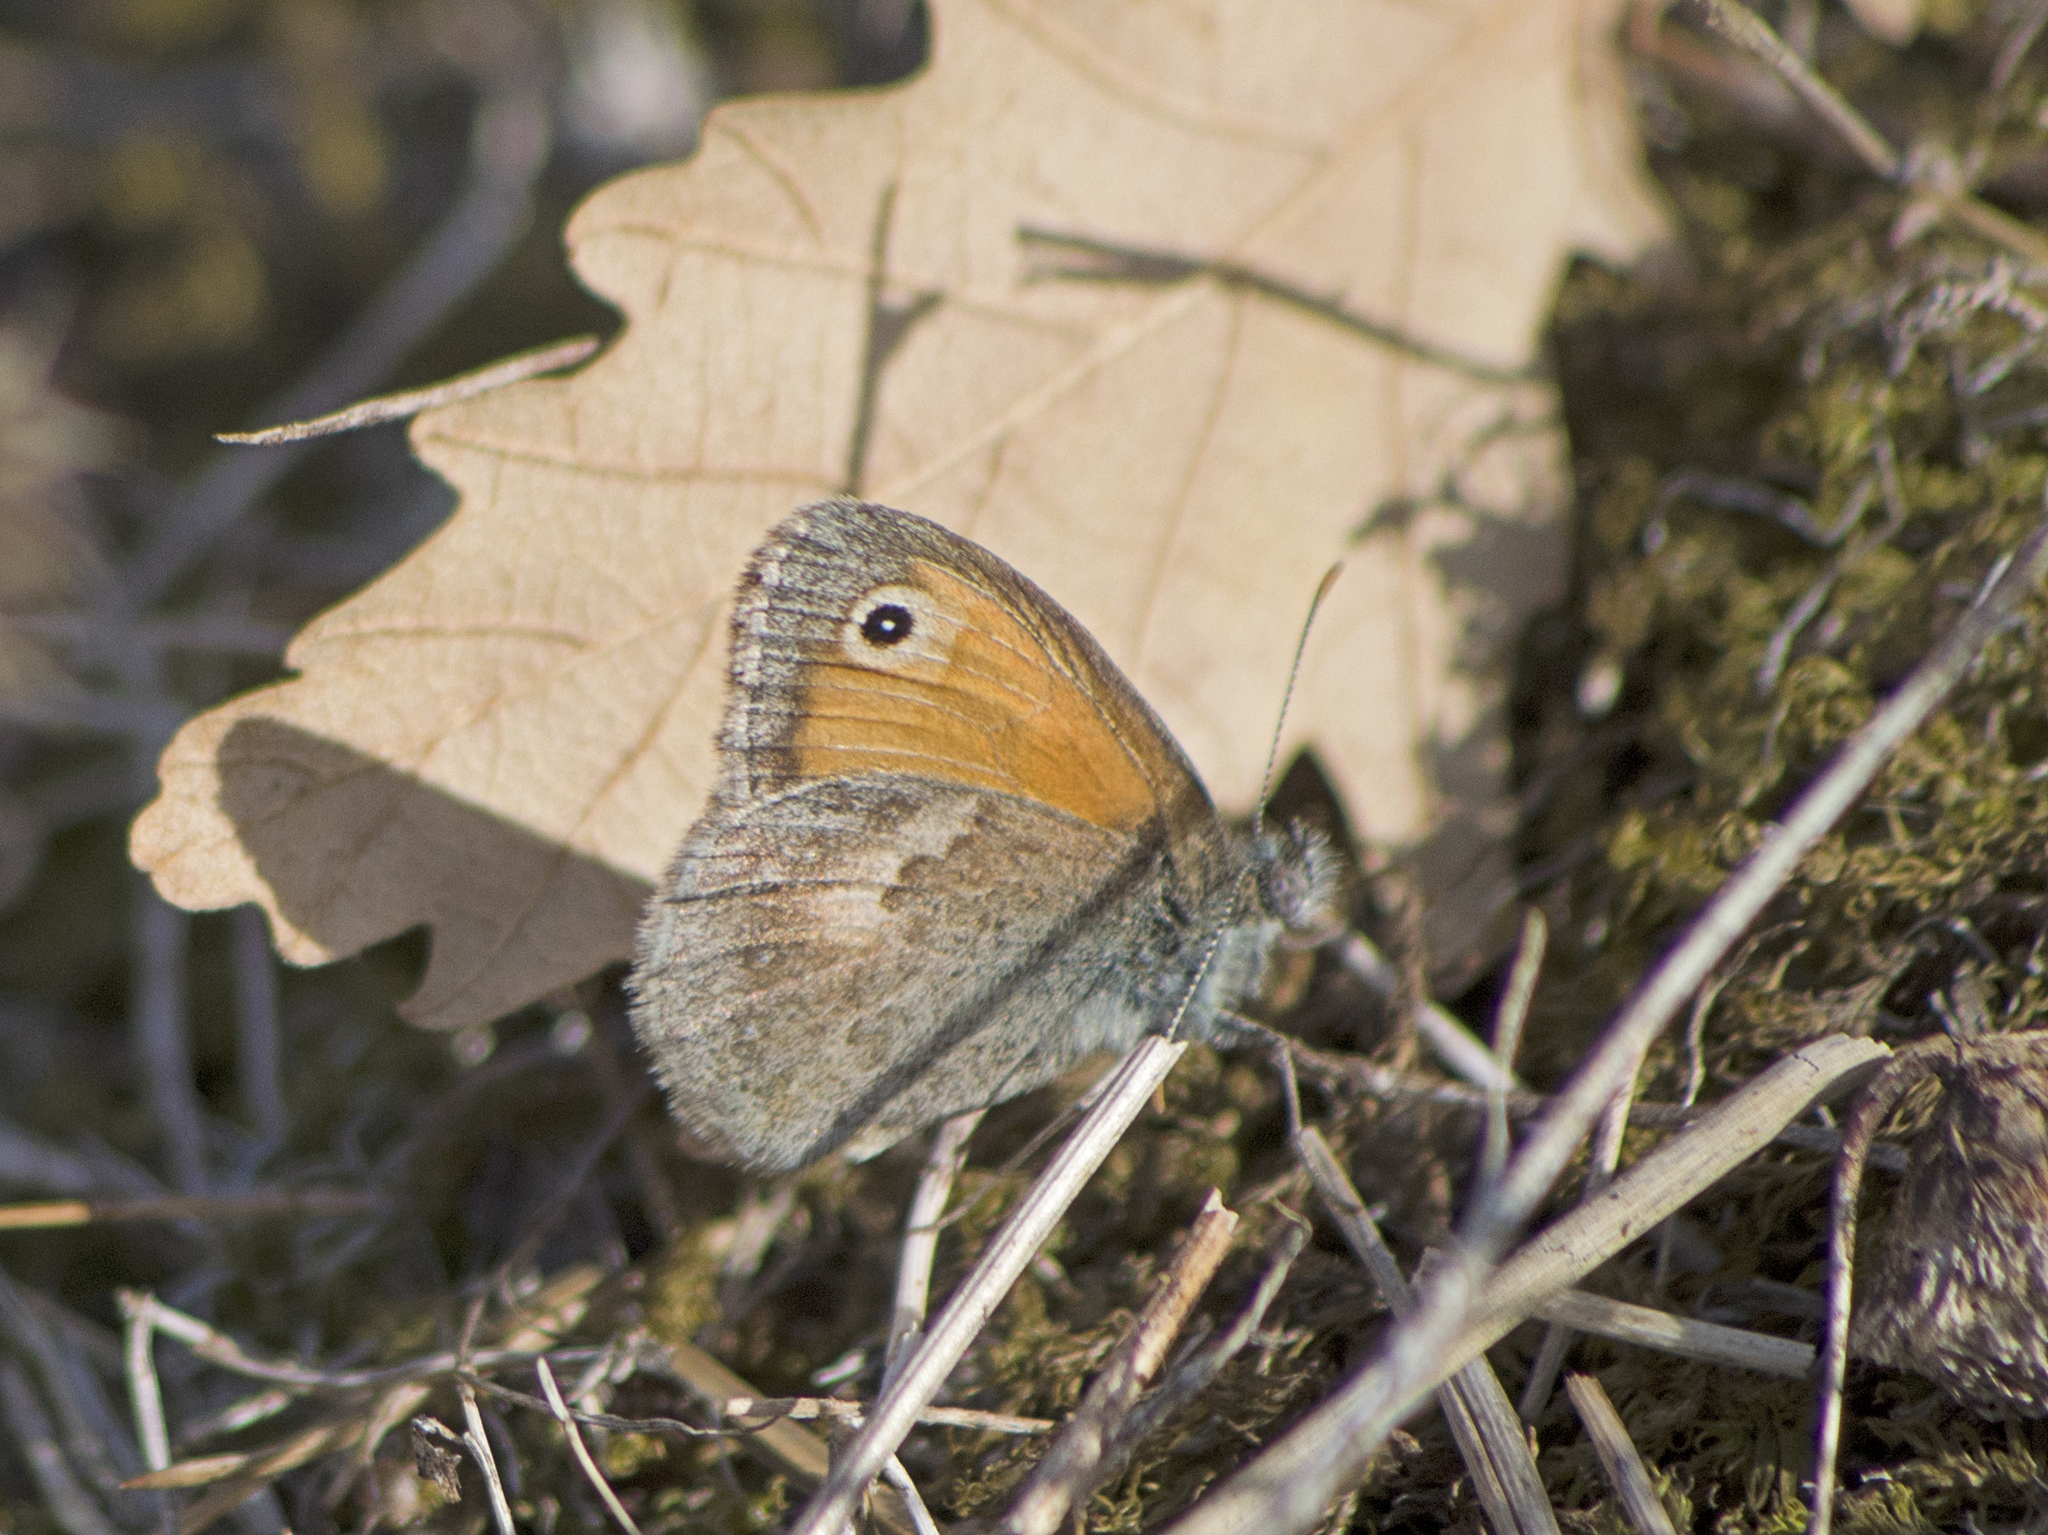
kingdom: Animalia
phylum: Arthropoda
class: Insecta
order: Lepidoptera
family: Nymphalidae
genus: Coenonympha
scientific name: Coenonympha pamphilus
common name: Small heath
